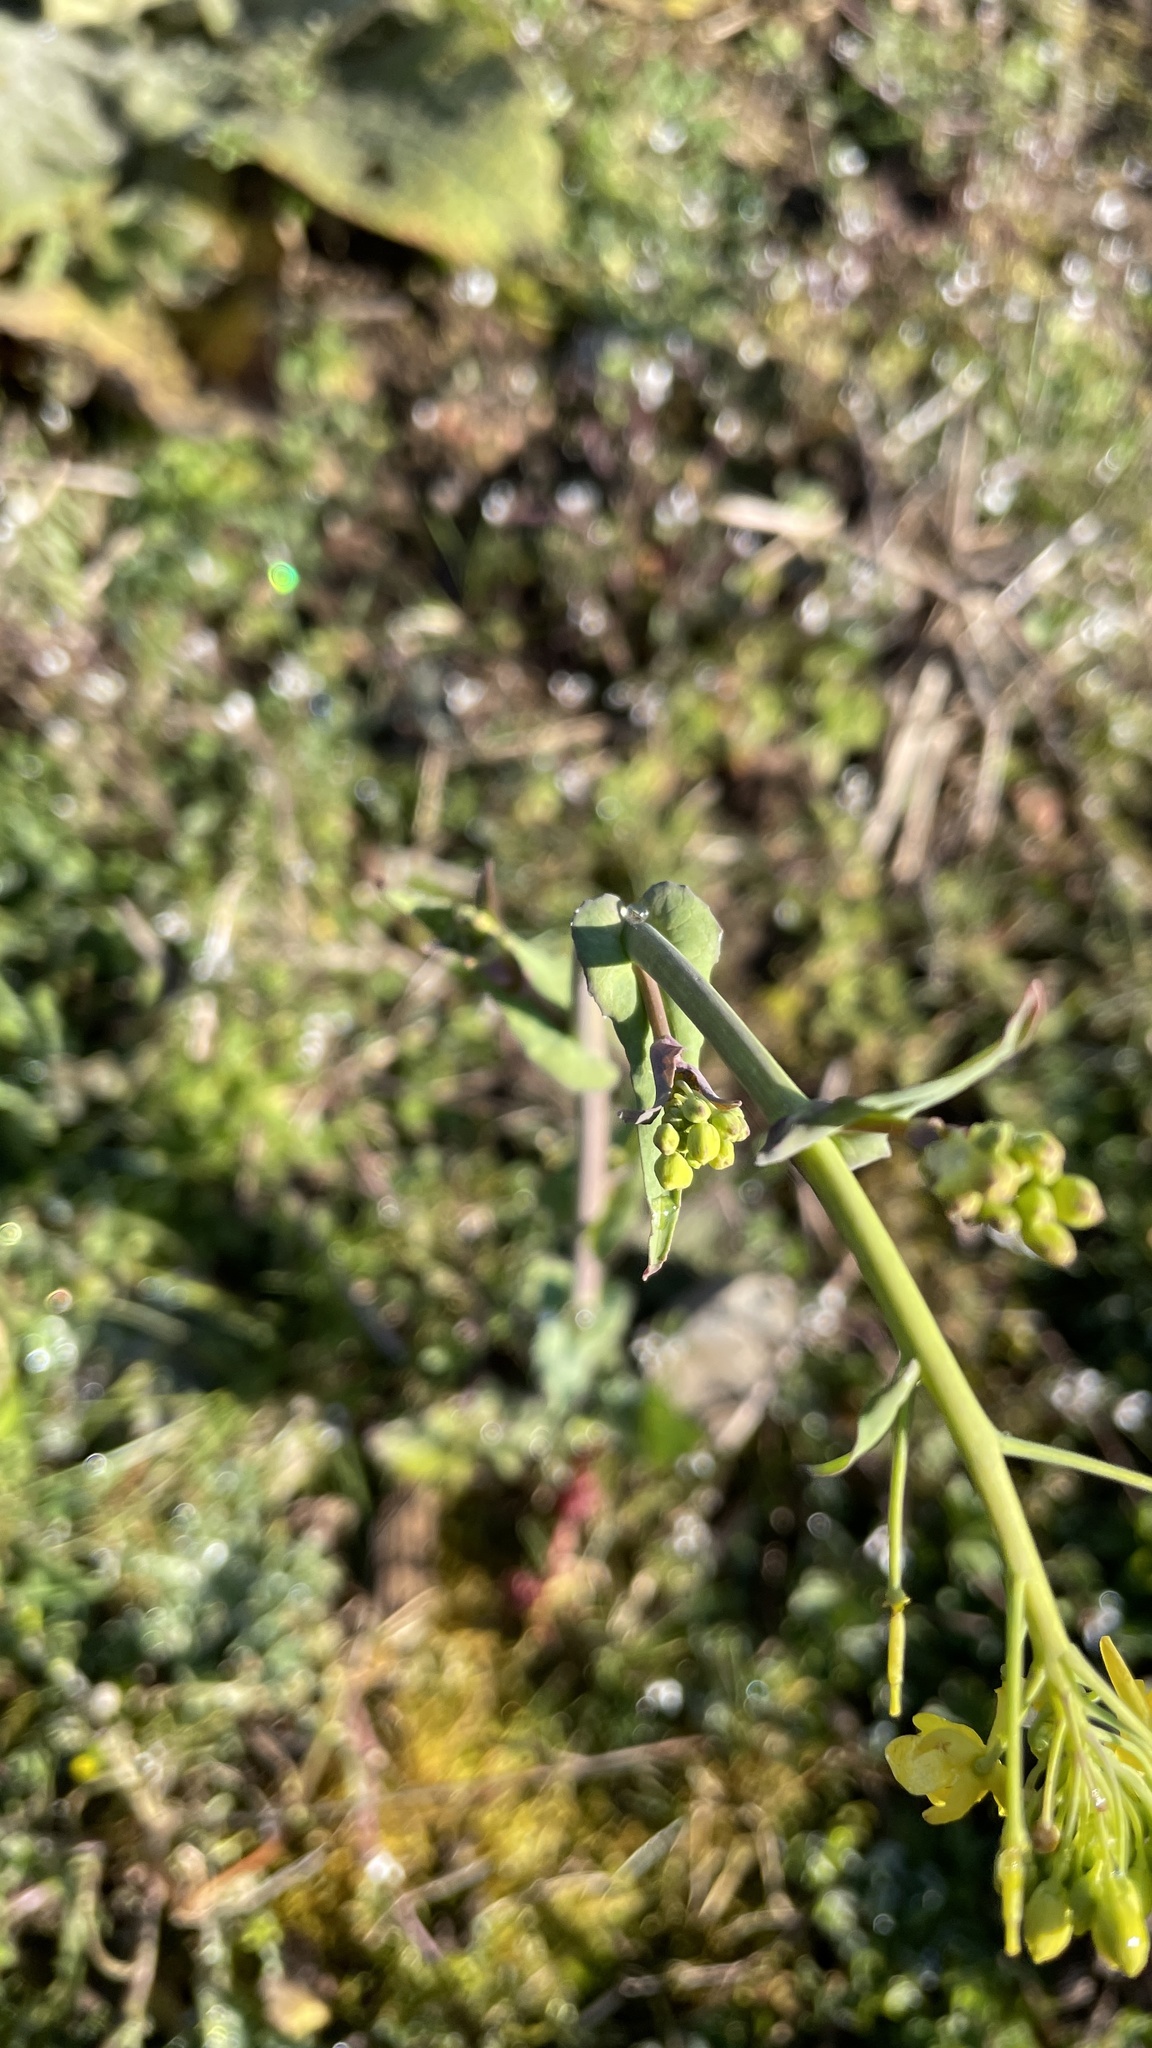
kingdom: Plantae
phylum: Tracheophyta
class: Magnoliopsida
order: Brassicales
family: Brassicaceae
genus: Brassica
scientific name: Brassica rapa
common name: Field mustard
